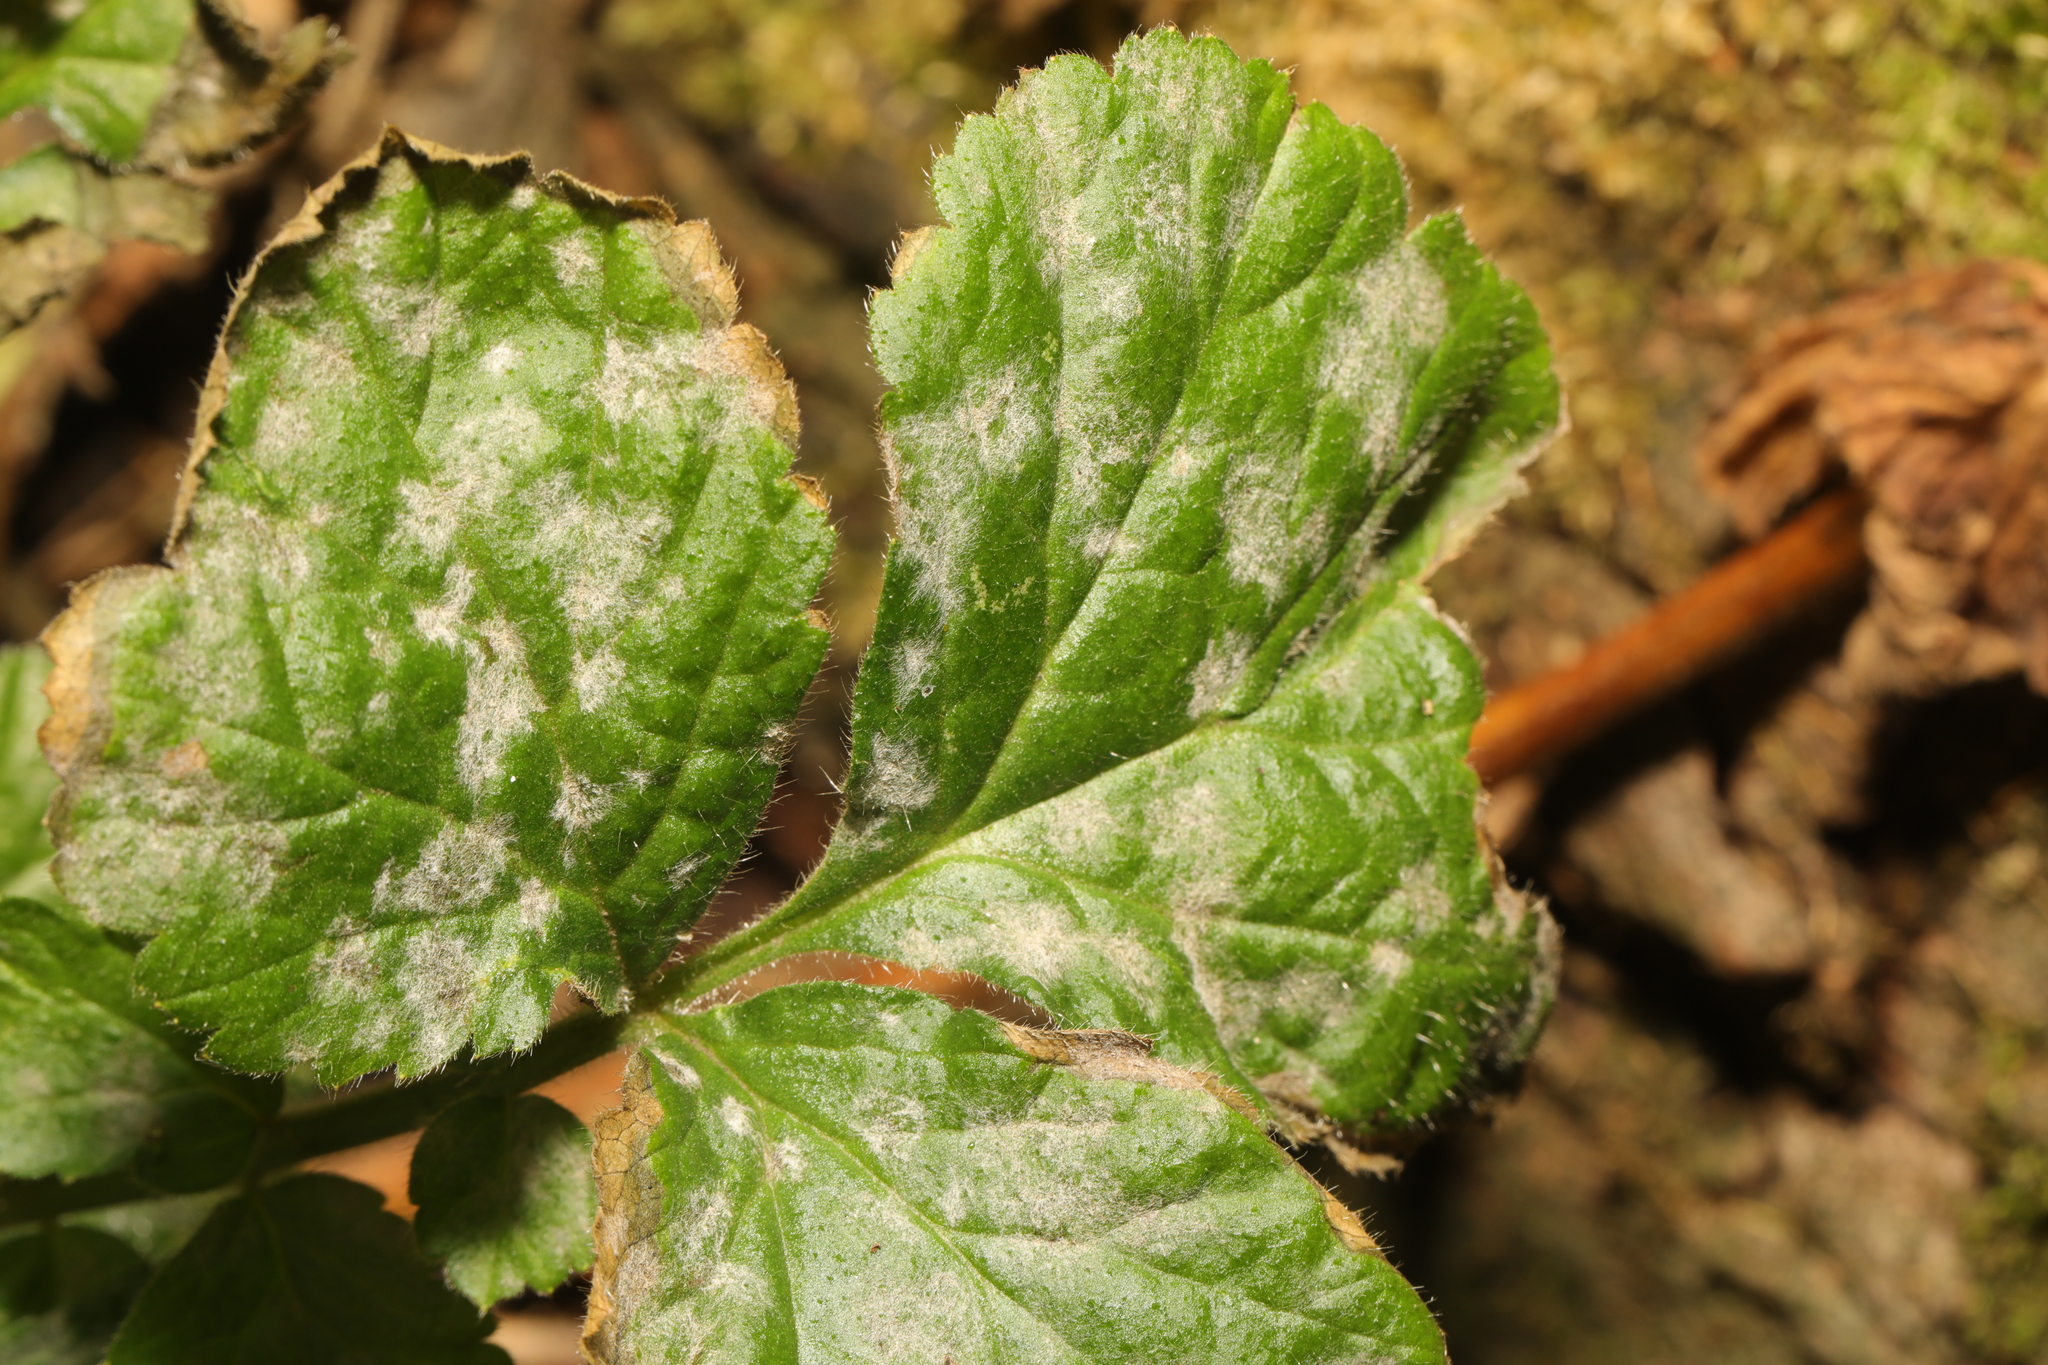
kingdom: Fungi
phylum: Ascomycota
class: Leotiomycetes
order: Helotiales
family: Erysiphaceae
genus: Podosphaera
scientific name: Podosphaera aphanis
